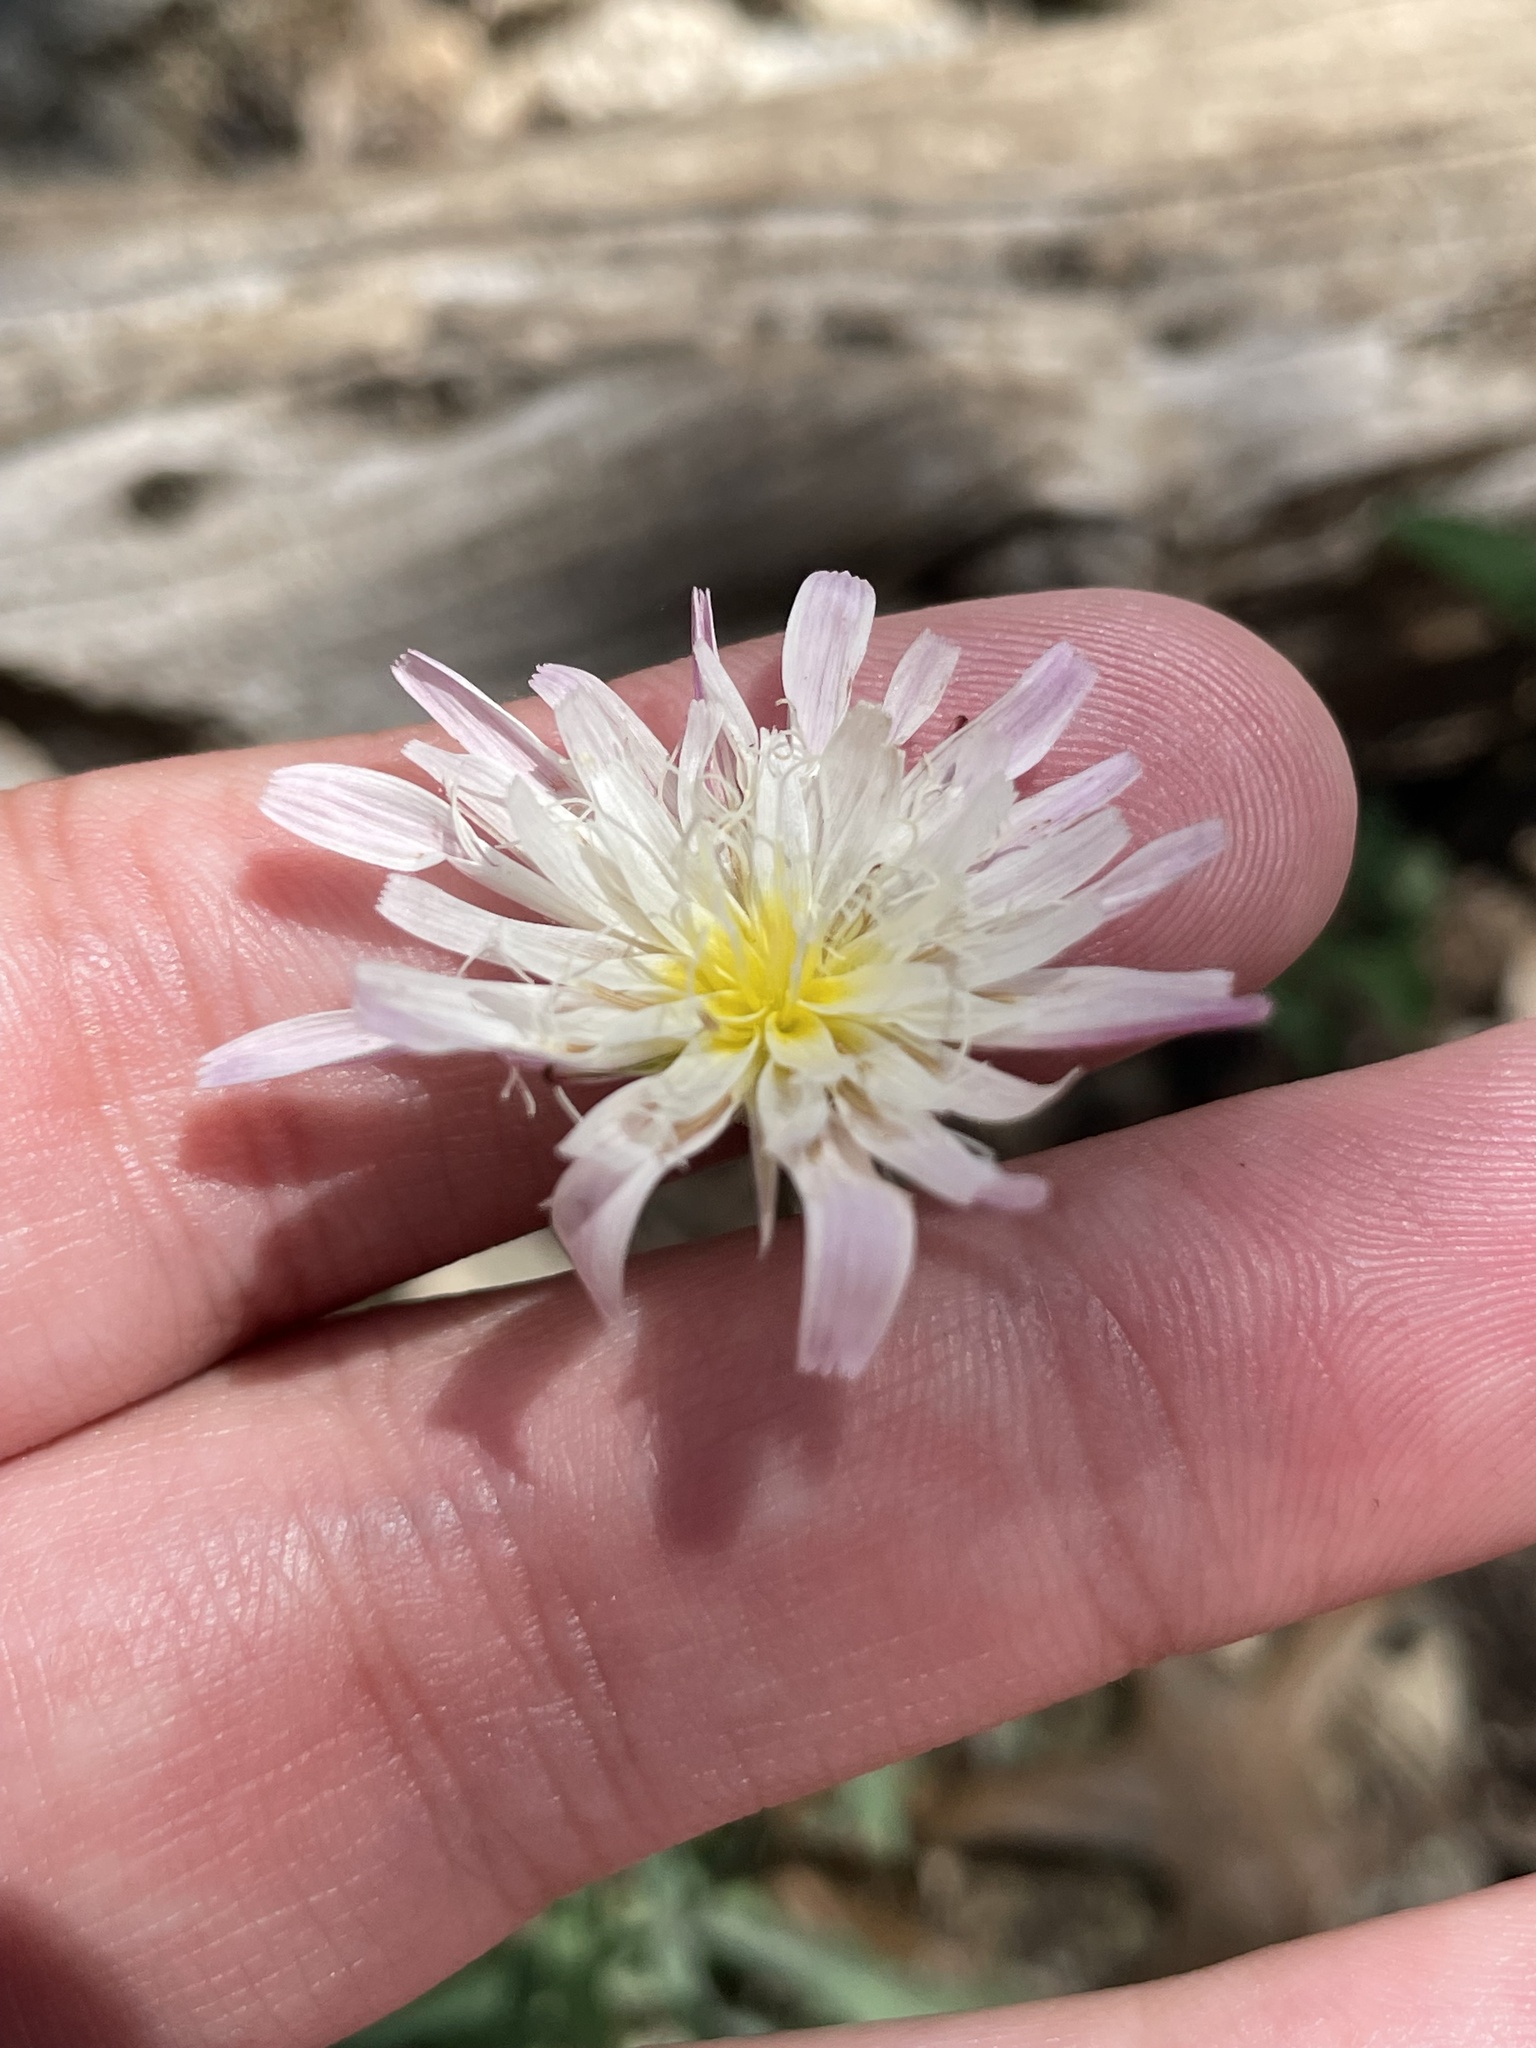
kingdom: Plantae
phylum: Tracheophyta
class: Magnoliopsida
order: Asterales
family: Asteraceae
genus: Pinaropappus
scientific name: Pinaropappus roseus
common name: Rock-lettuce
